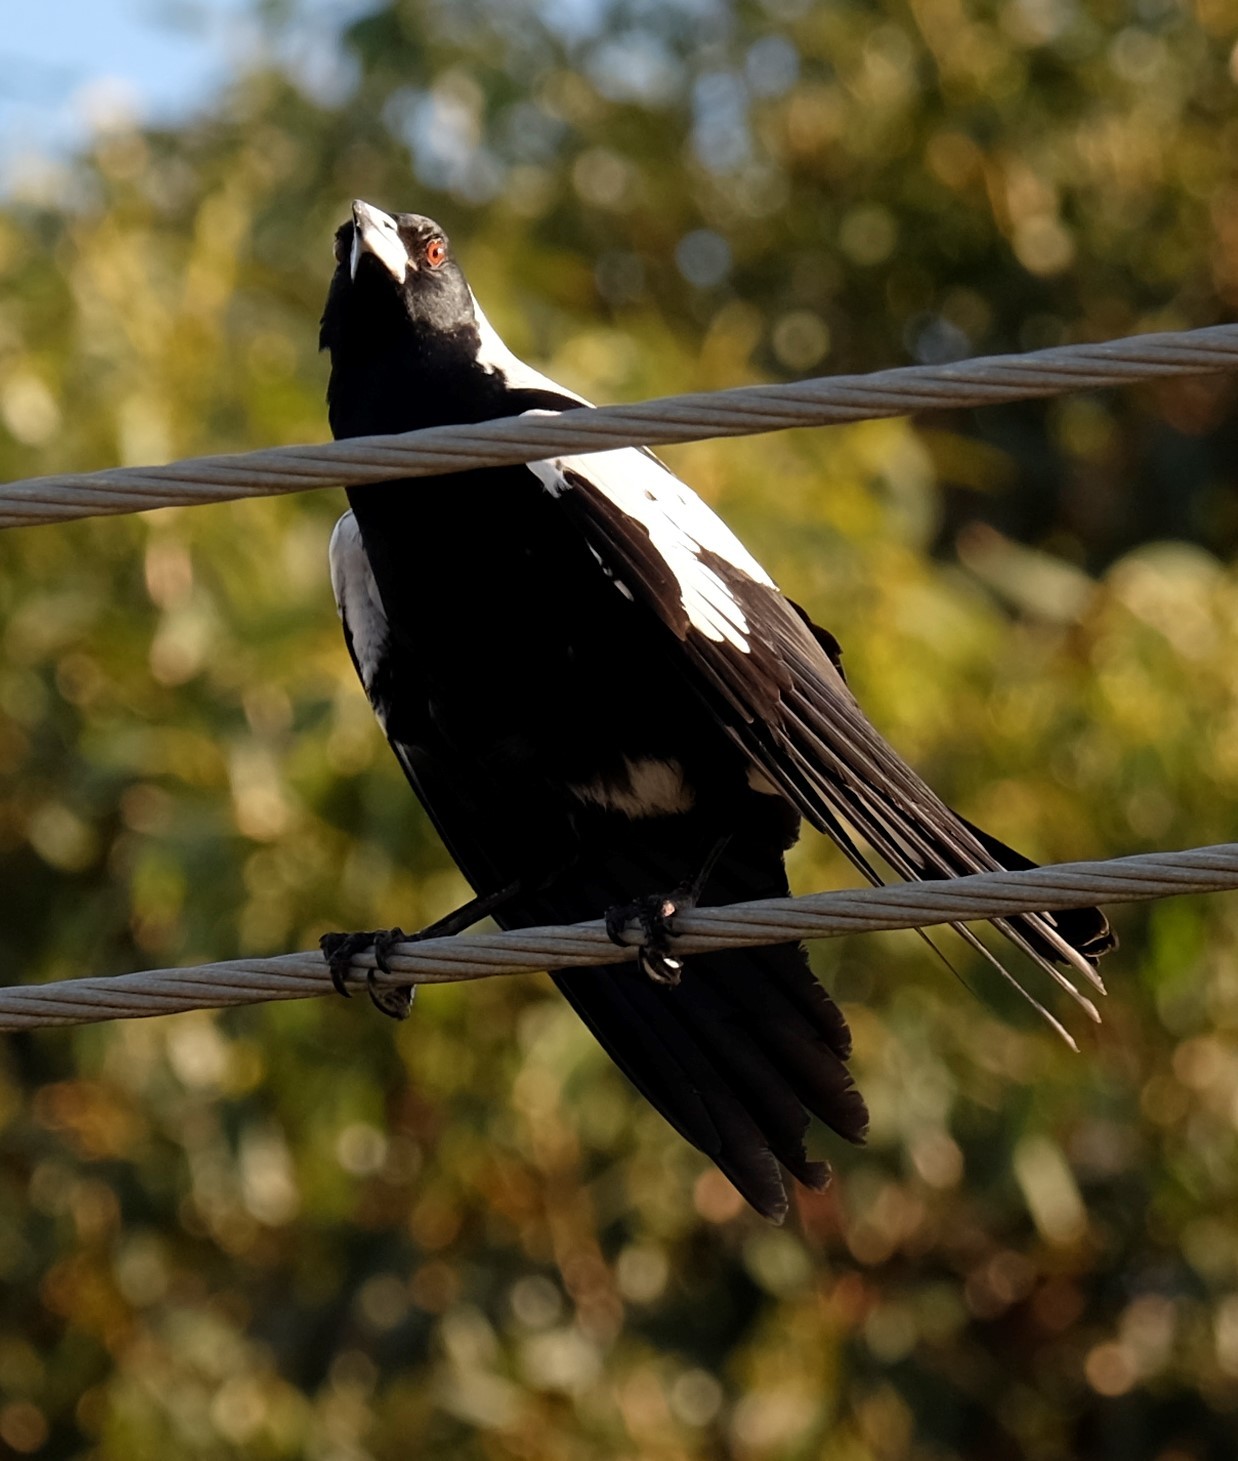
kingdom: Animalia
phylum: Chordata
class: Aves
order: Passeriformes
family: Cracticidae
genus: Gymnorhina
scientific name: Gymnorhina tibicen
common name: Australian magpie
